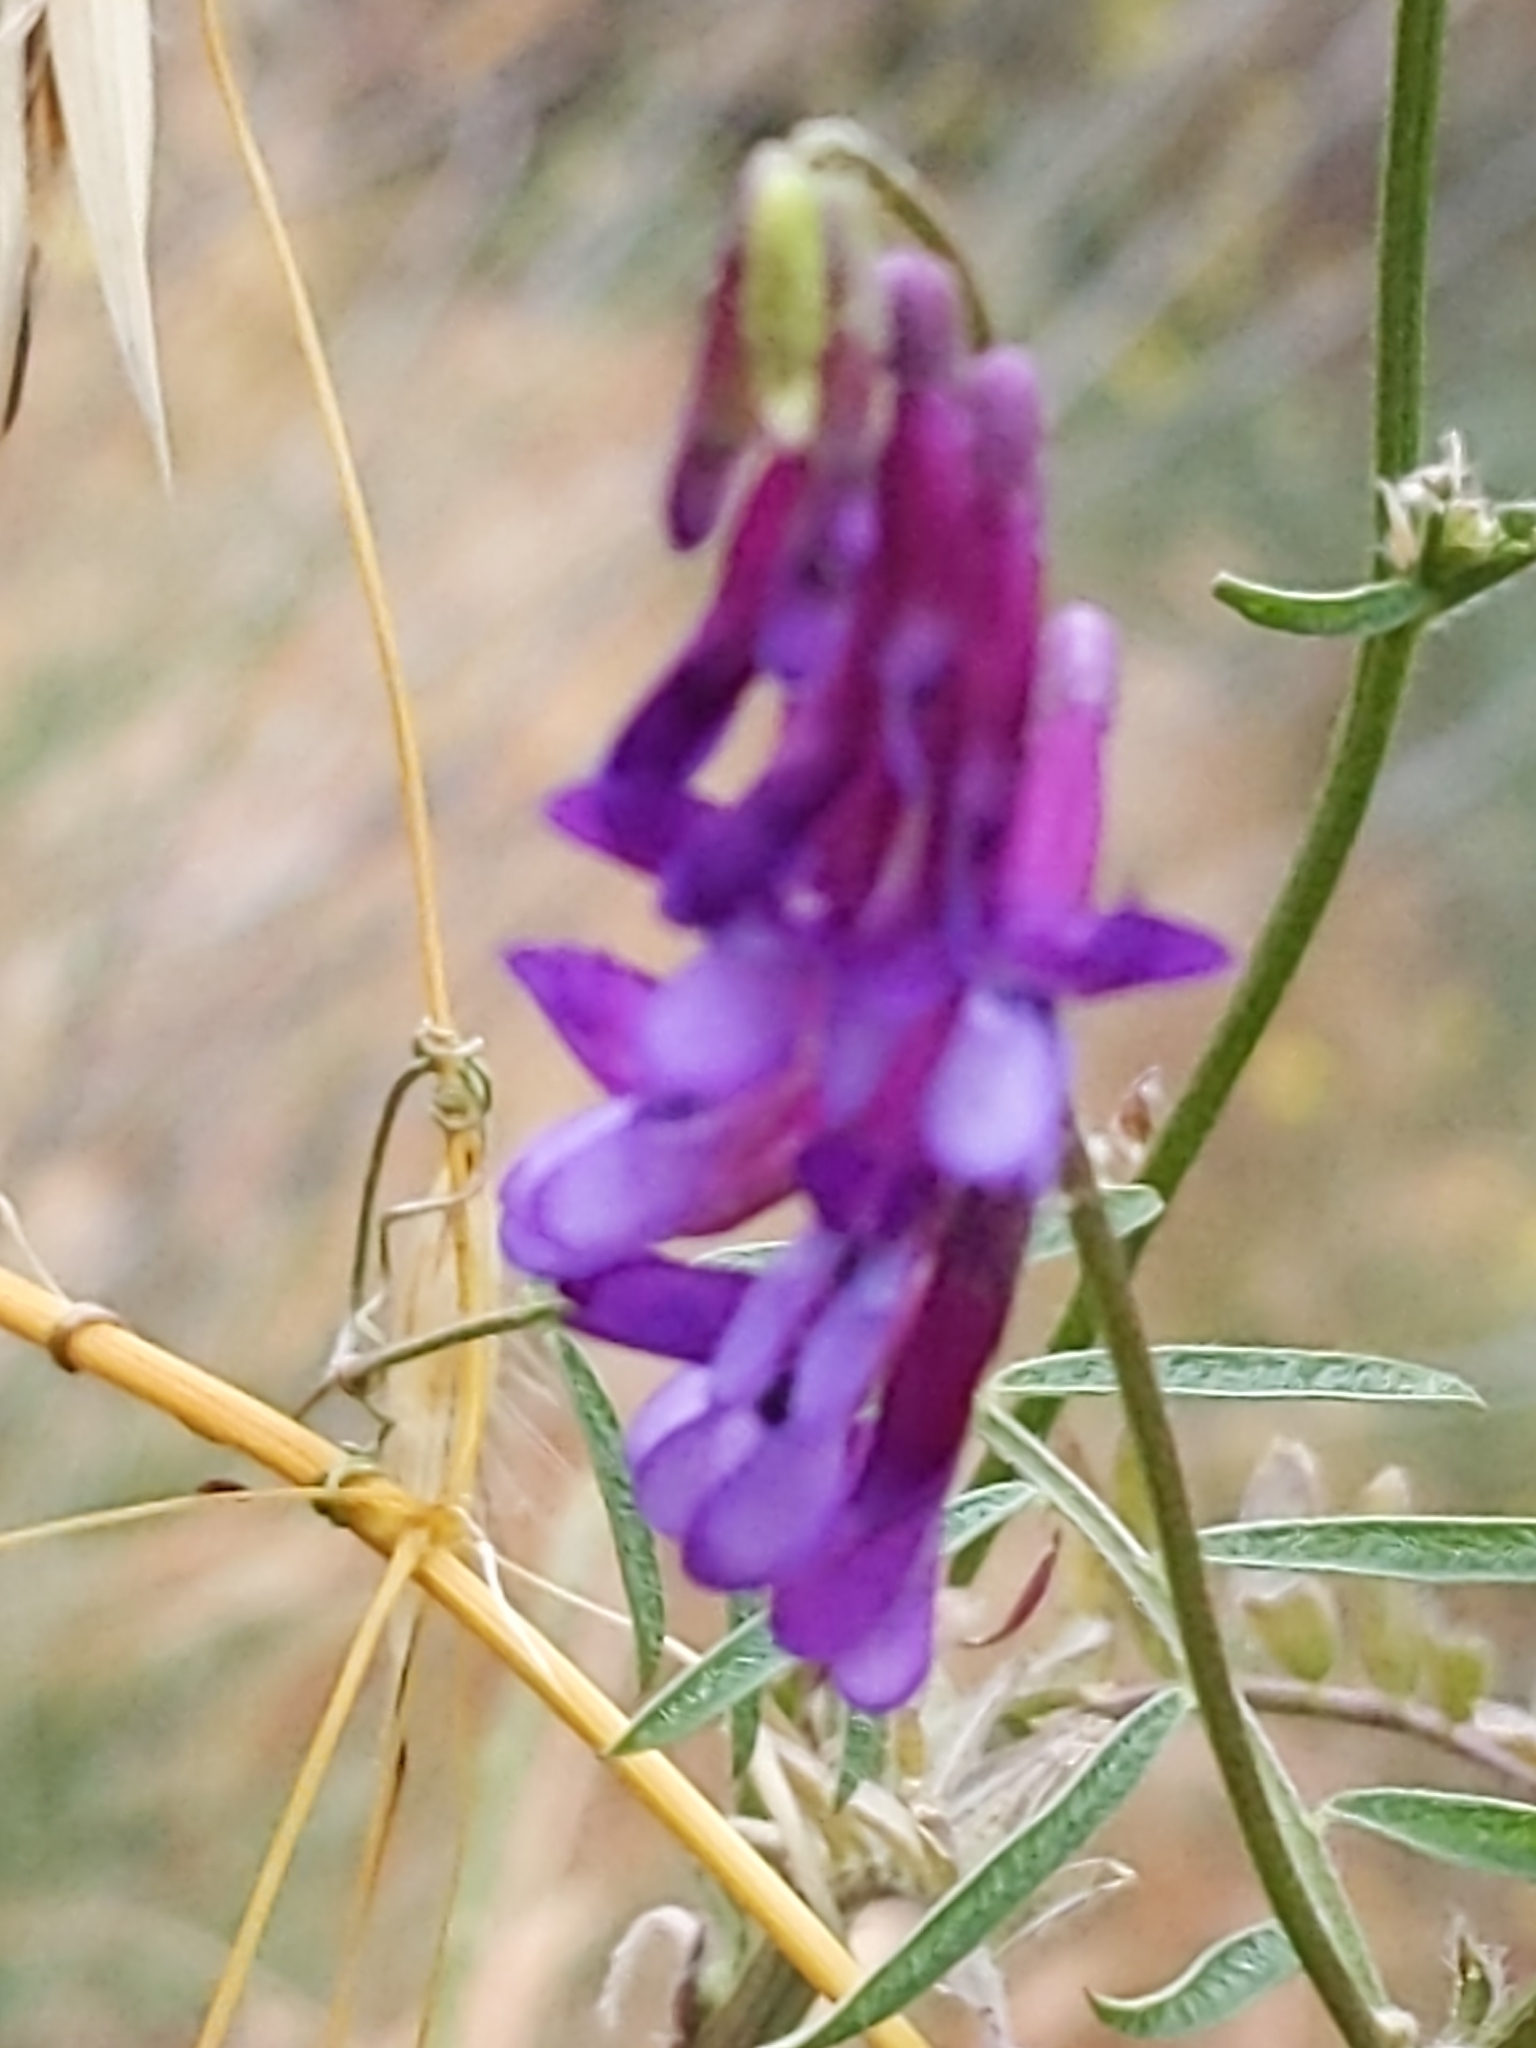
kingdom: Plantae
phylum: Tracheophyta
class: Magnoliopsida
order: Fabales
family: Fabaceae
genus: Vicia
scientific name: Vicia villosa
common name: Fodder vetch
